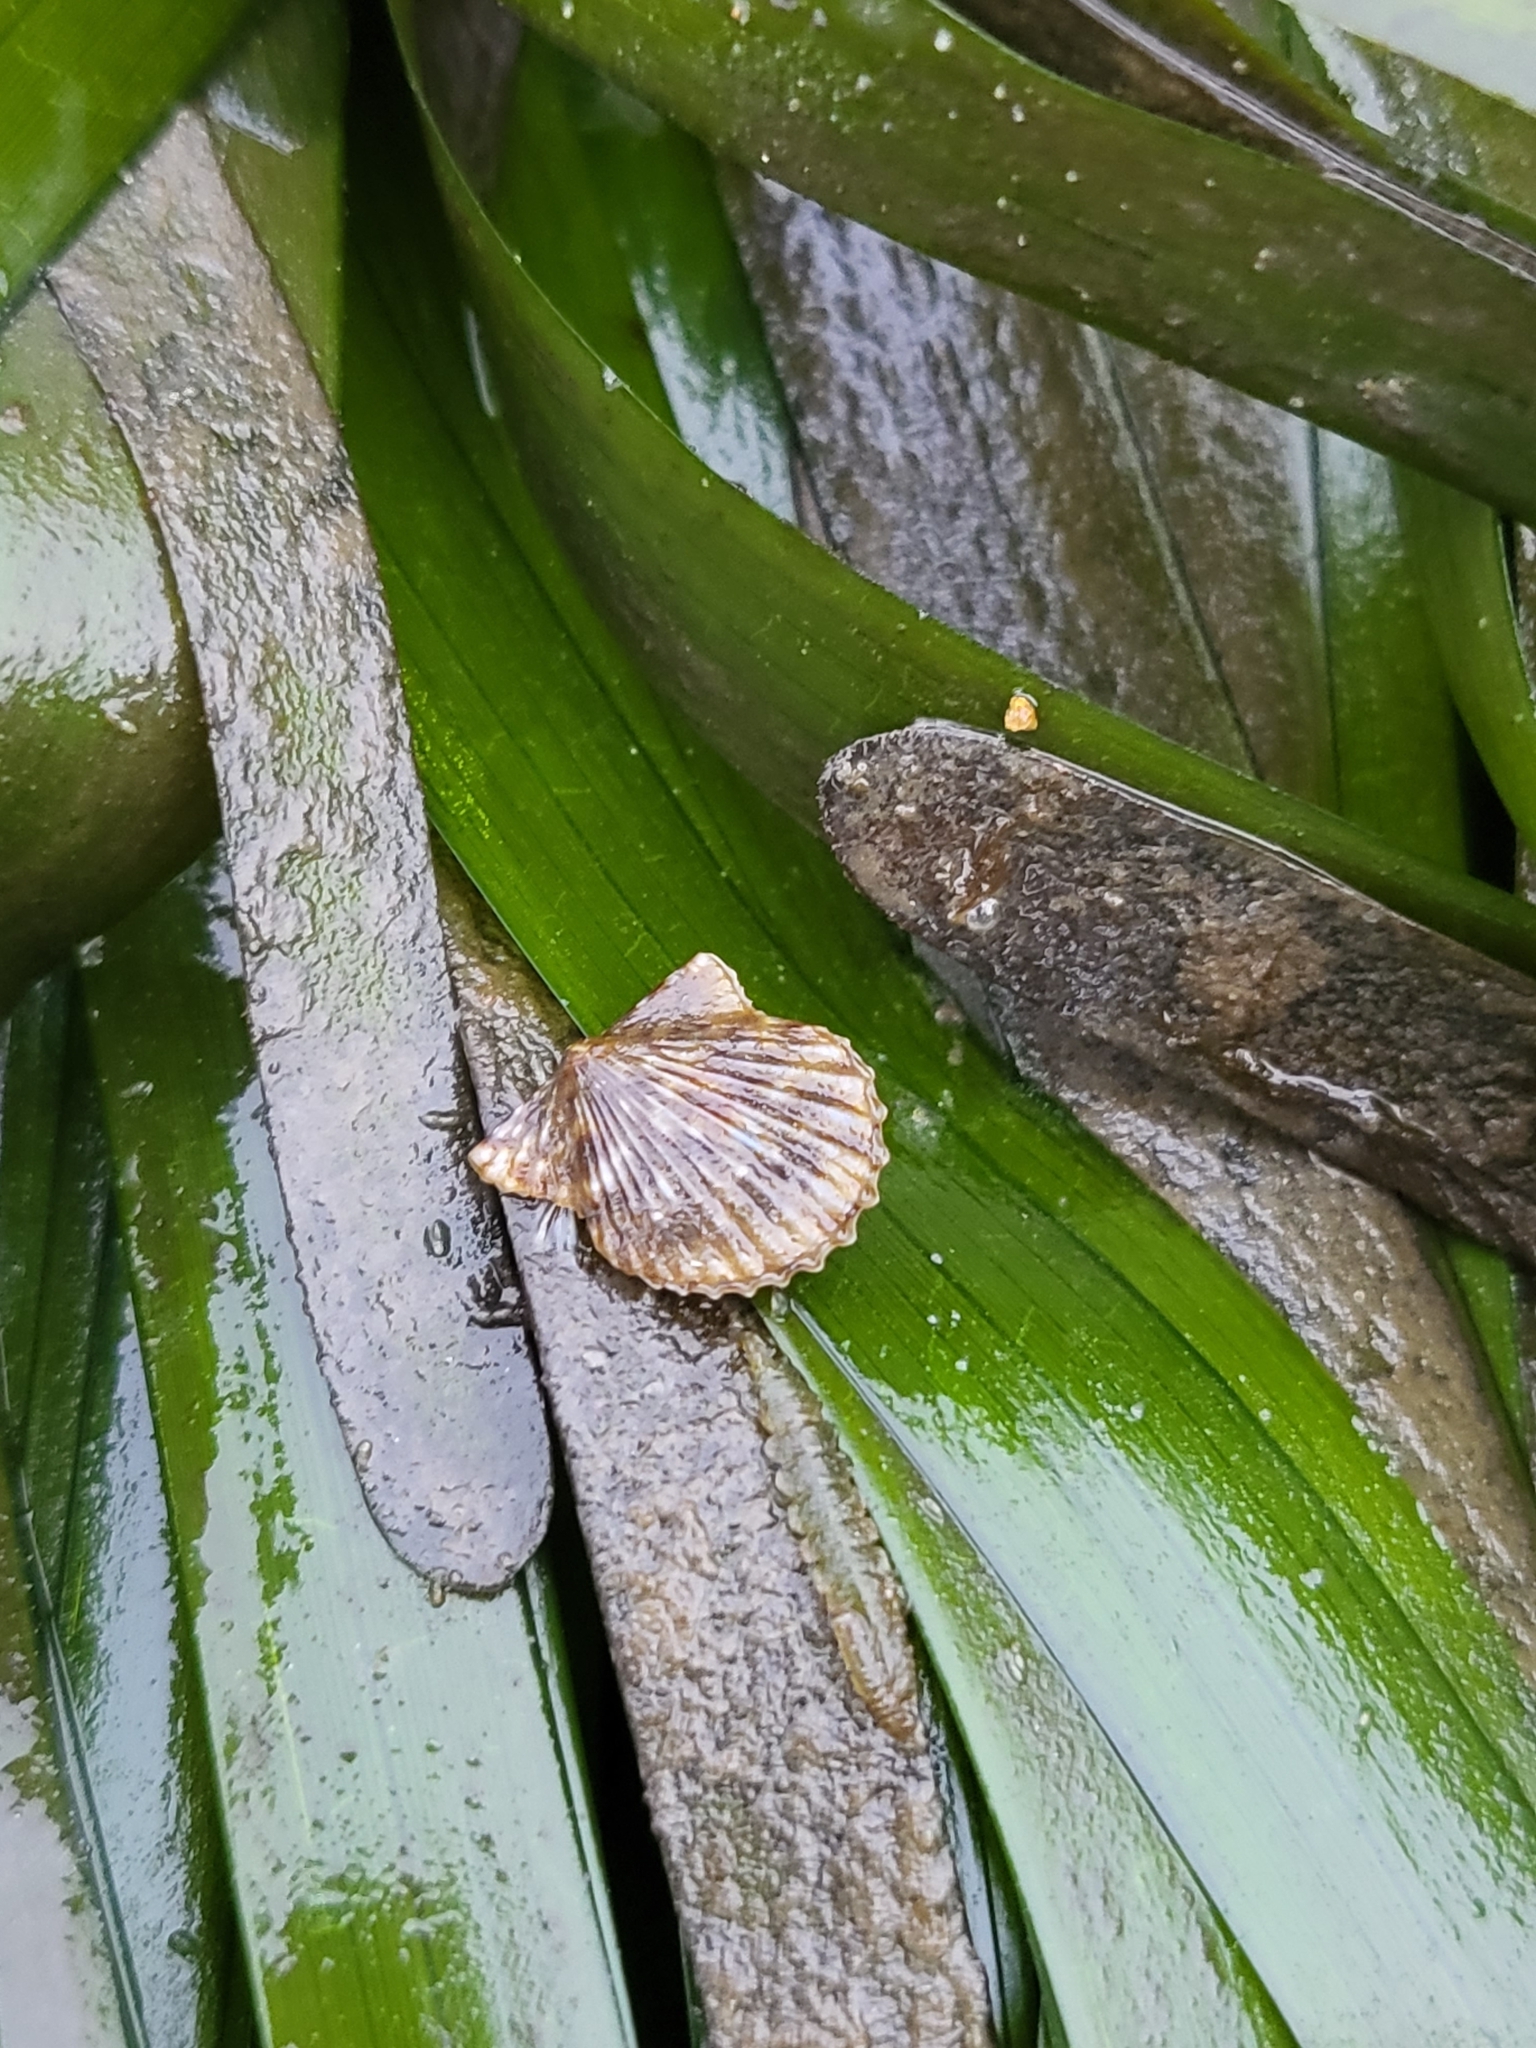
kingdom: Animalia
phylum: Mollusca
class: Bivalvia
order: Pectinida
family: Pectinidae
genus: Leptopecten
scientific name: Leptopecten latiauratus
